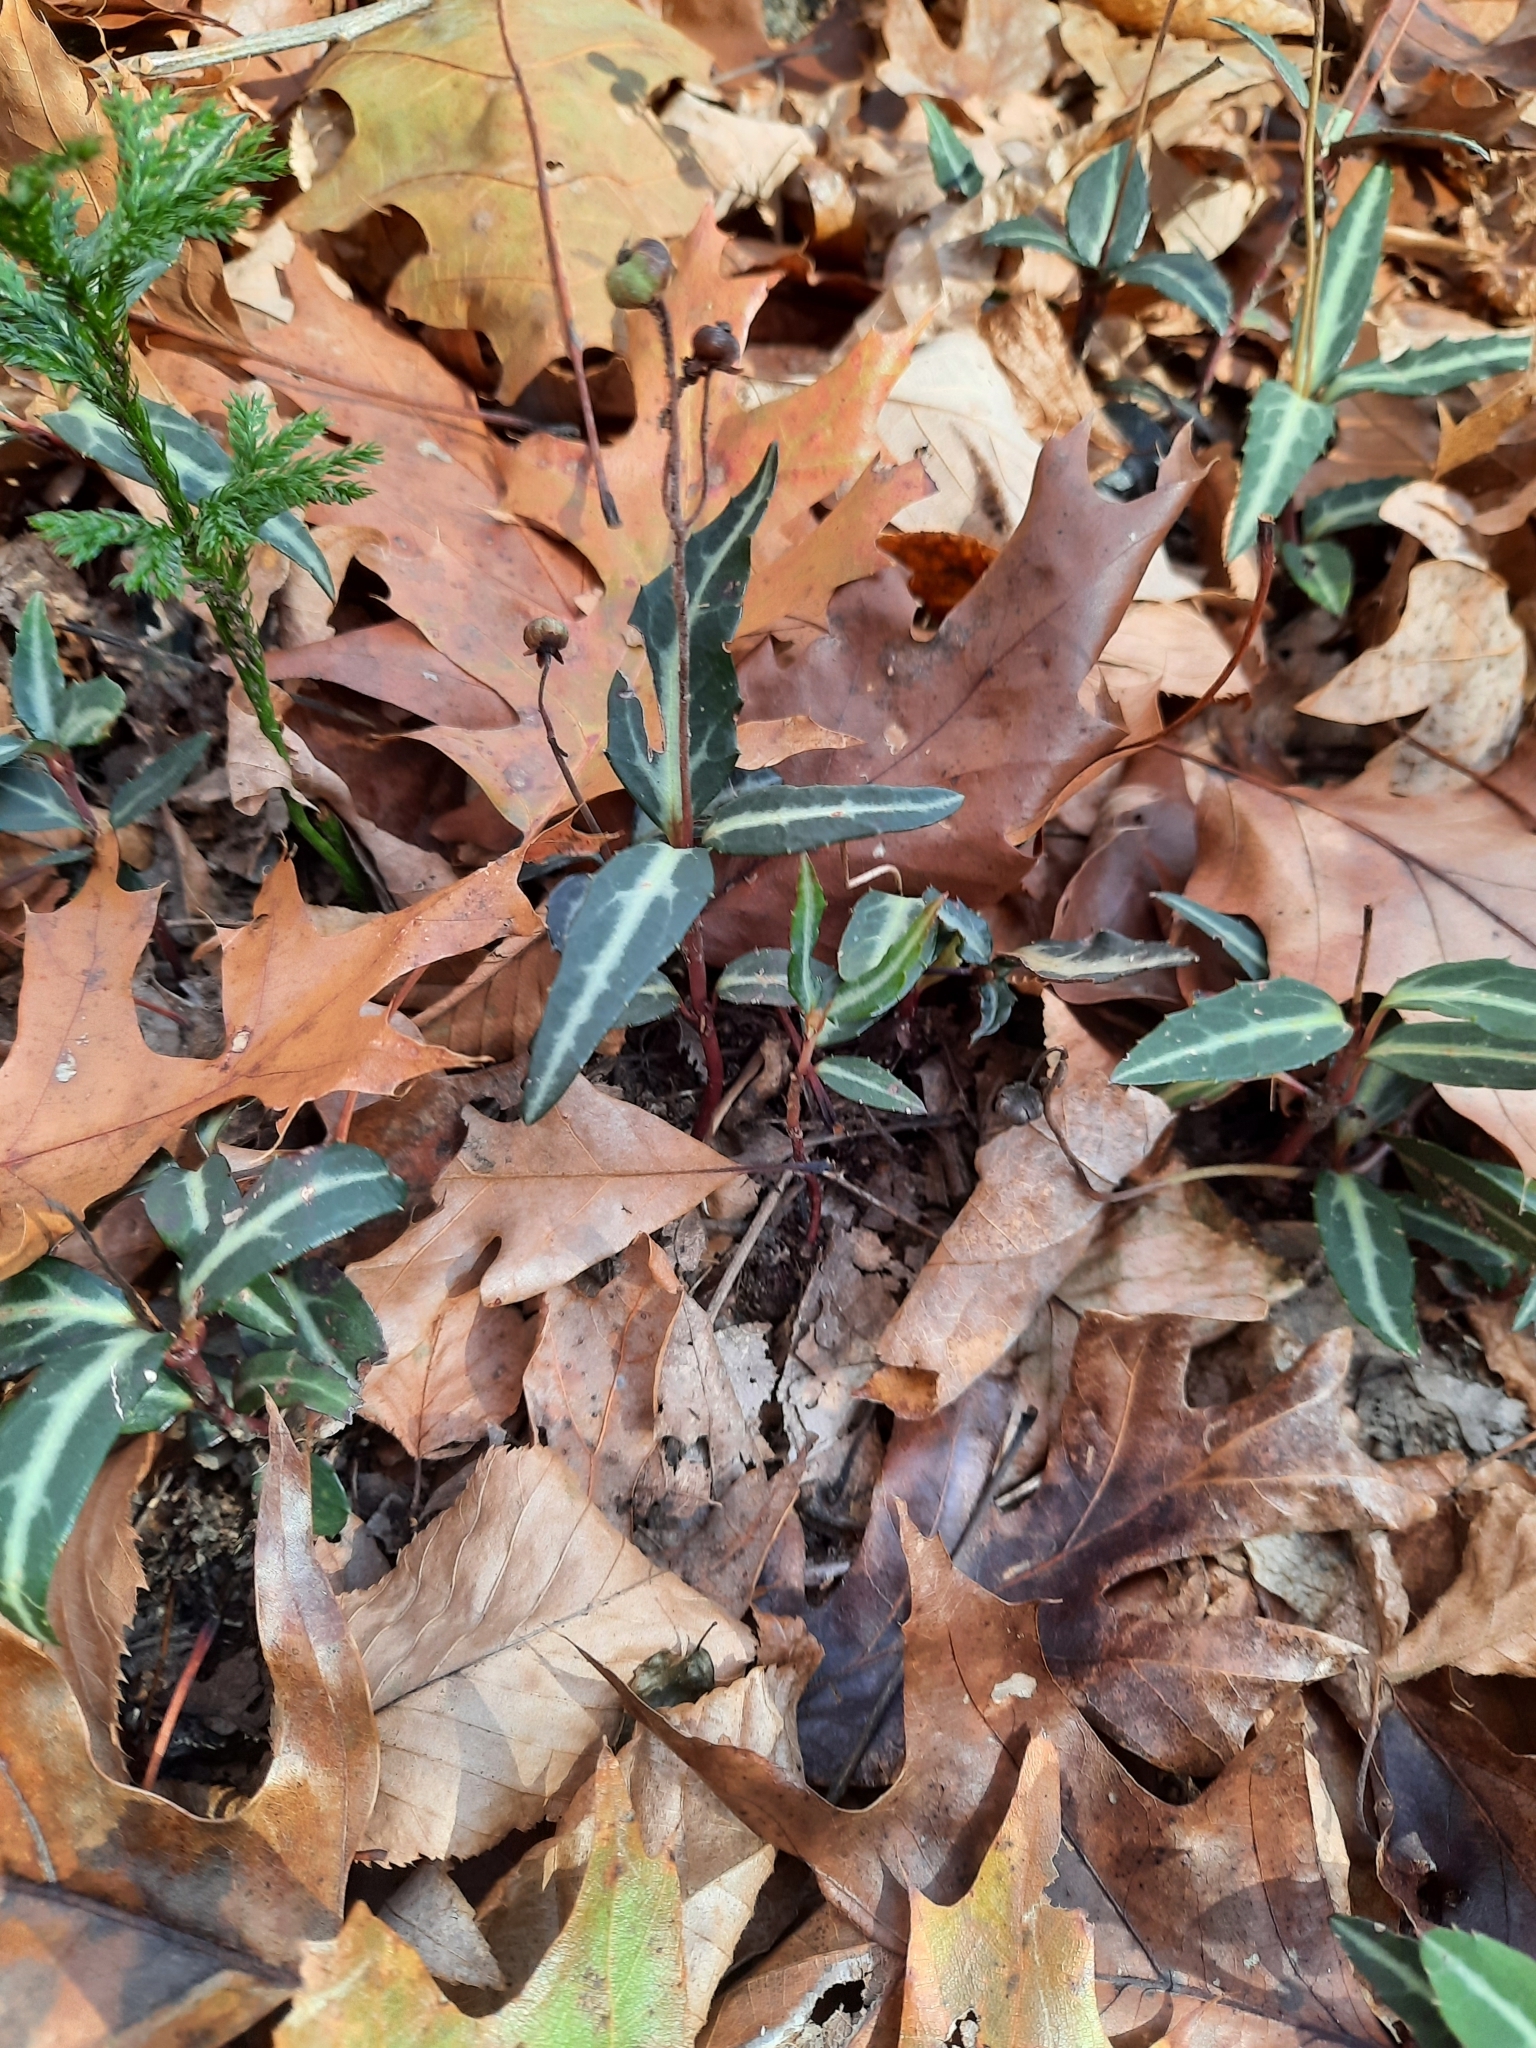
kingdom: Plantae
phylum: Tracheophyta
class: Magnoliopsida
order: Ericales
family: Ericaceae
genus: Chimaphila
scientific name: Chimaphila maculata
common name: Spotted pipsissewa
